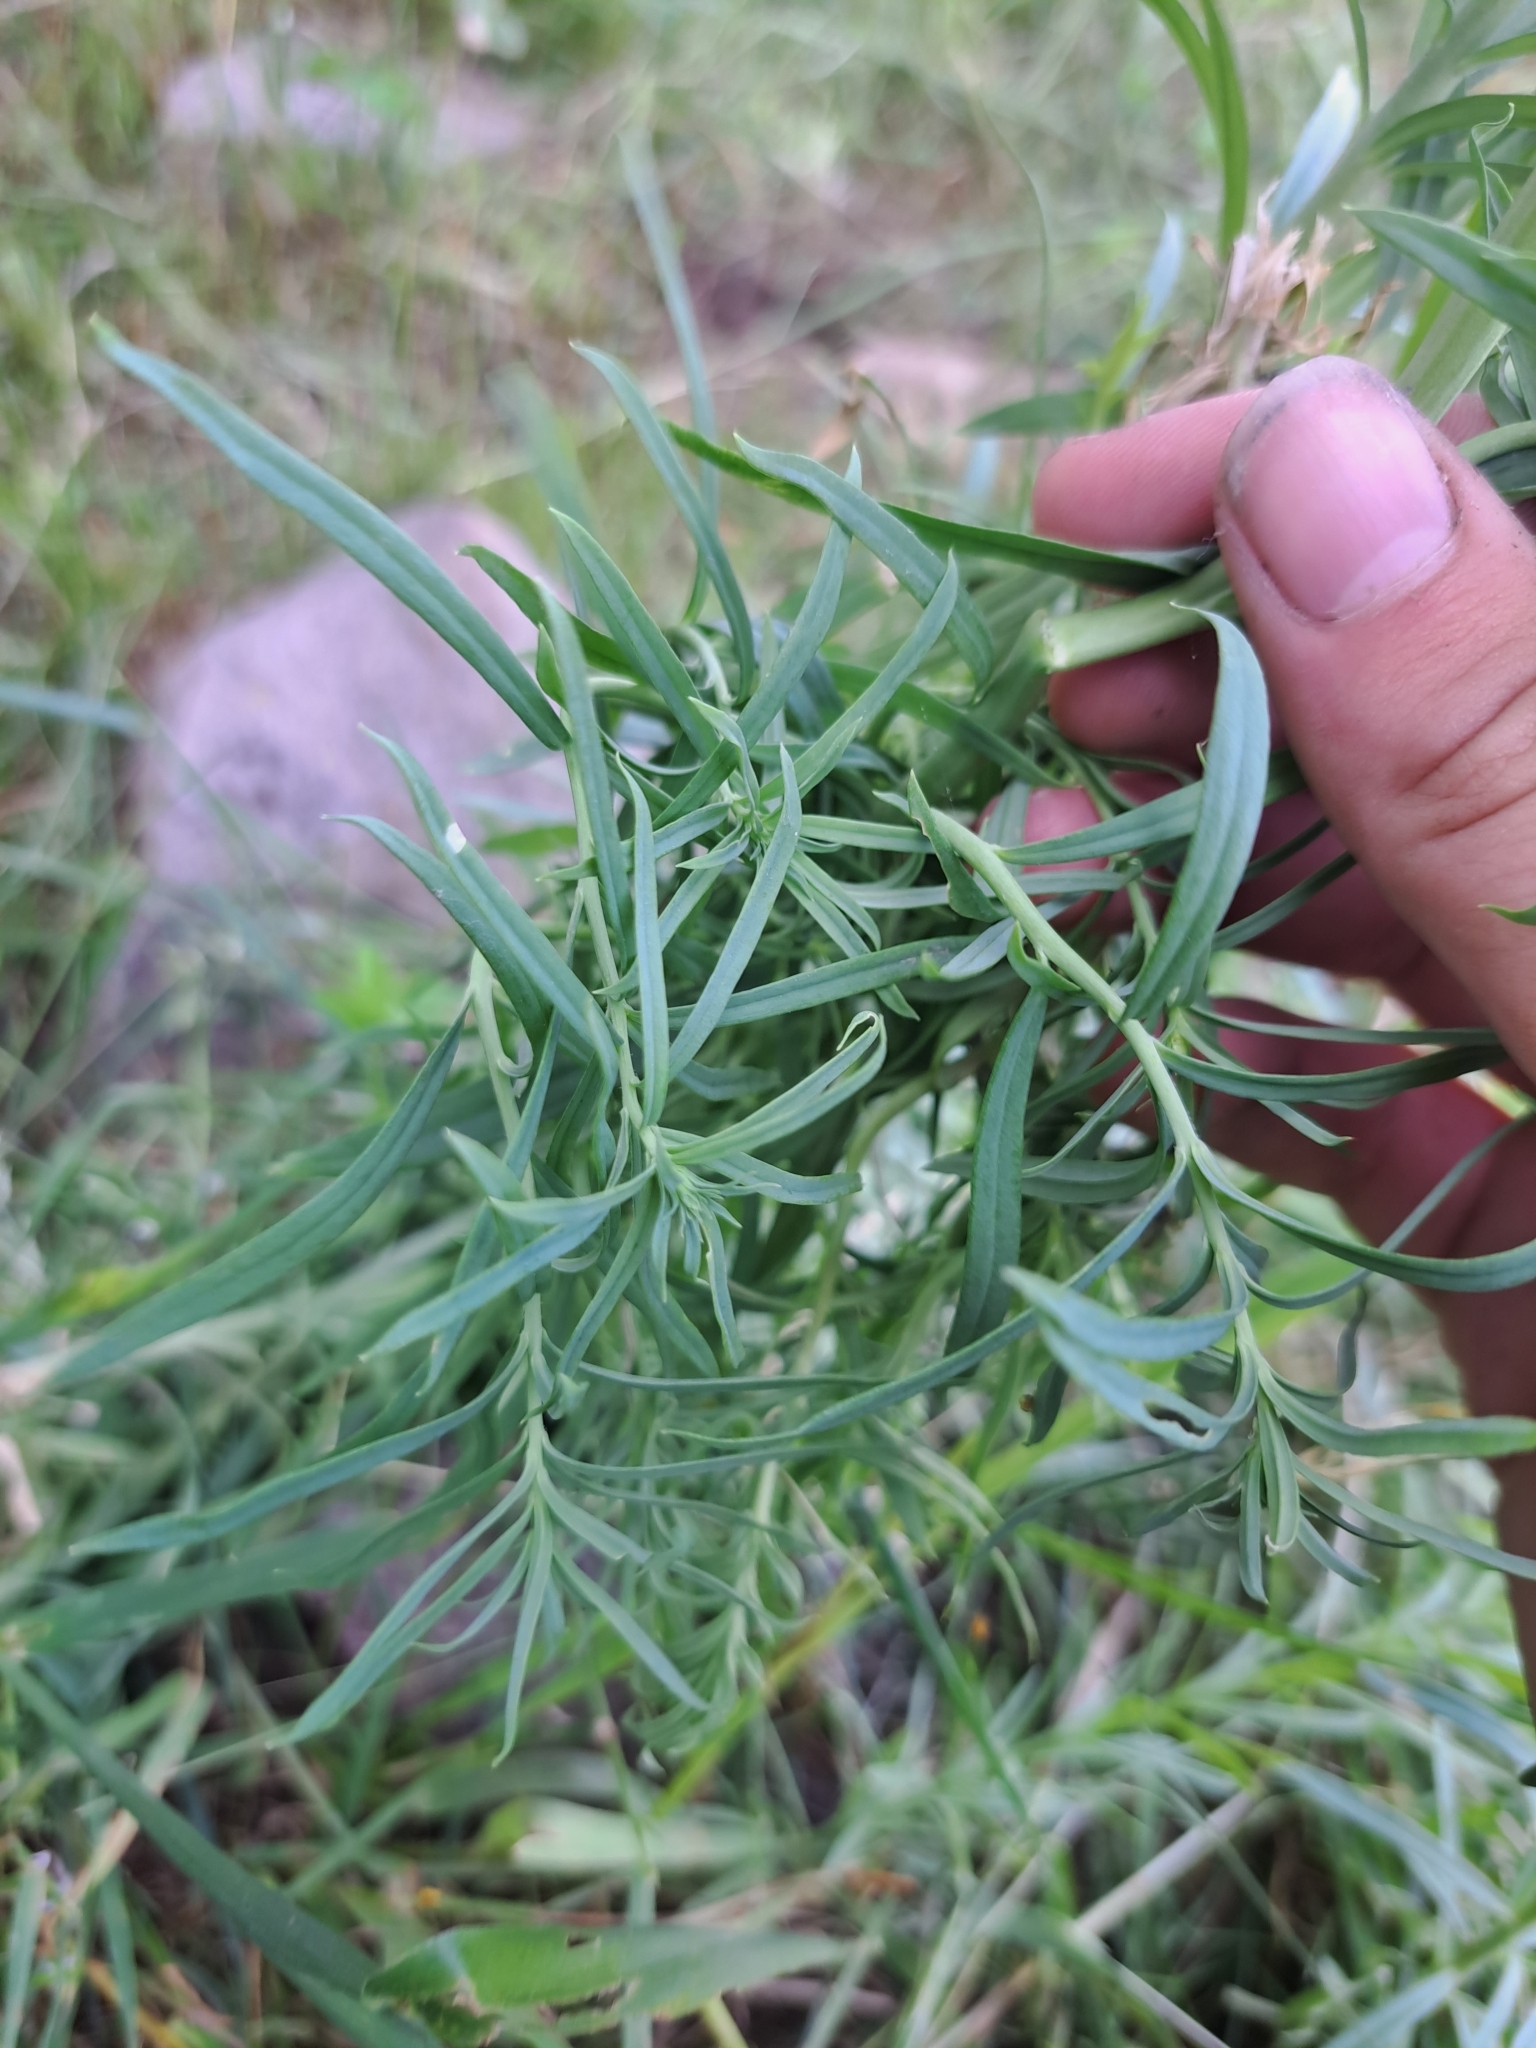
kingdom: Plantae
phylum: Tracheophyta
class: Magnoliopsida
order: Lamiales
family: Plantaginaceae
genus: Linaria
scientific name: Linaria vulgaris
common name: Butter and eggs
